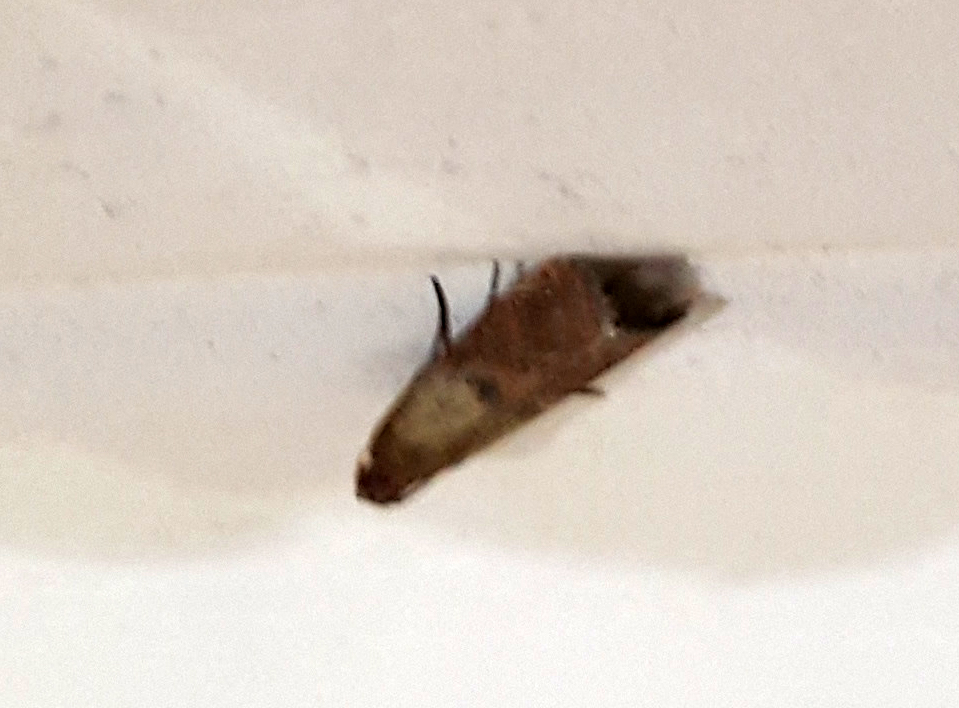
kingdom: Animalia
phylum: Arthropoda
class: Insecta
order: Lepidoptera
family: Pyralidae
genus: Plodia
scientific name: Plodia interpunctella
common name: Indian meal moth
